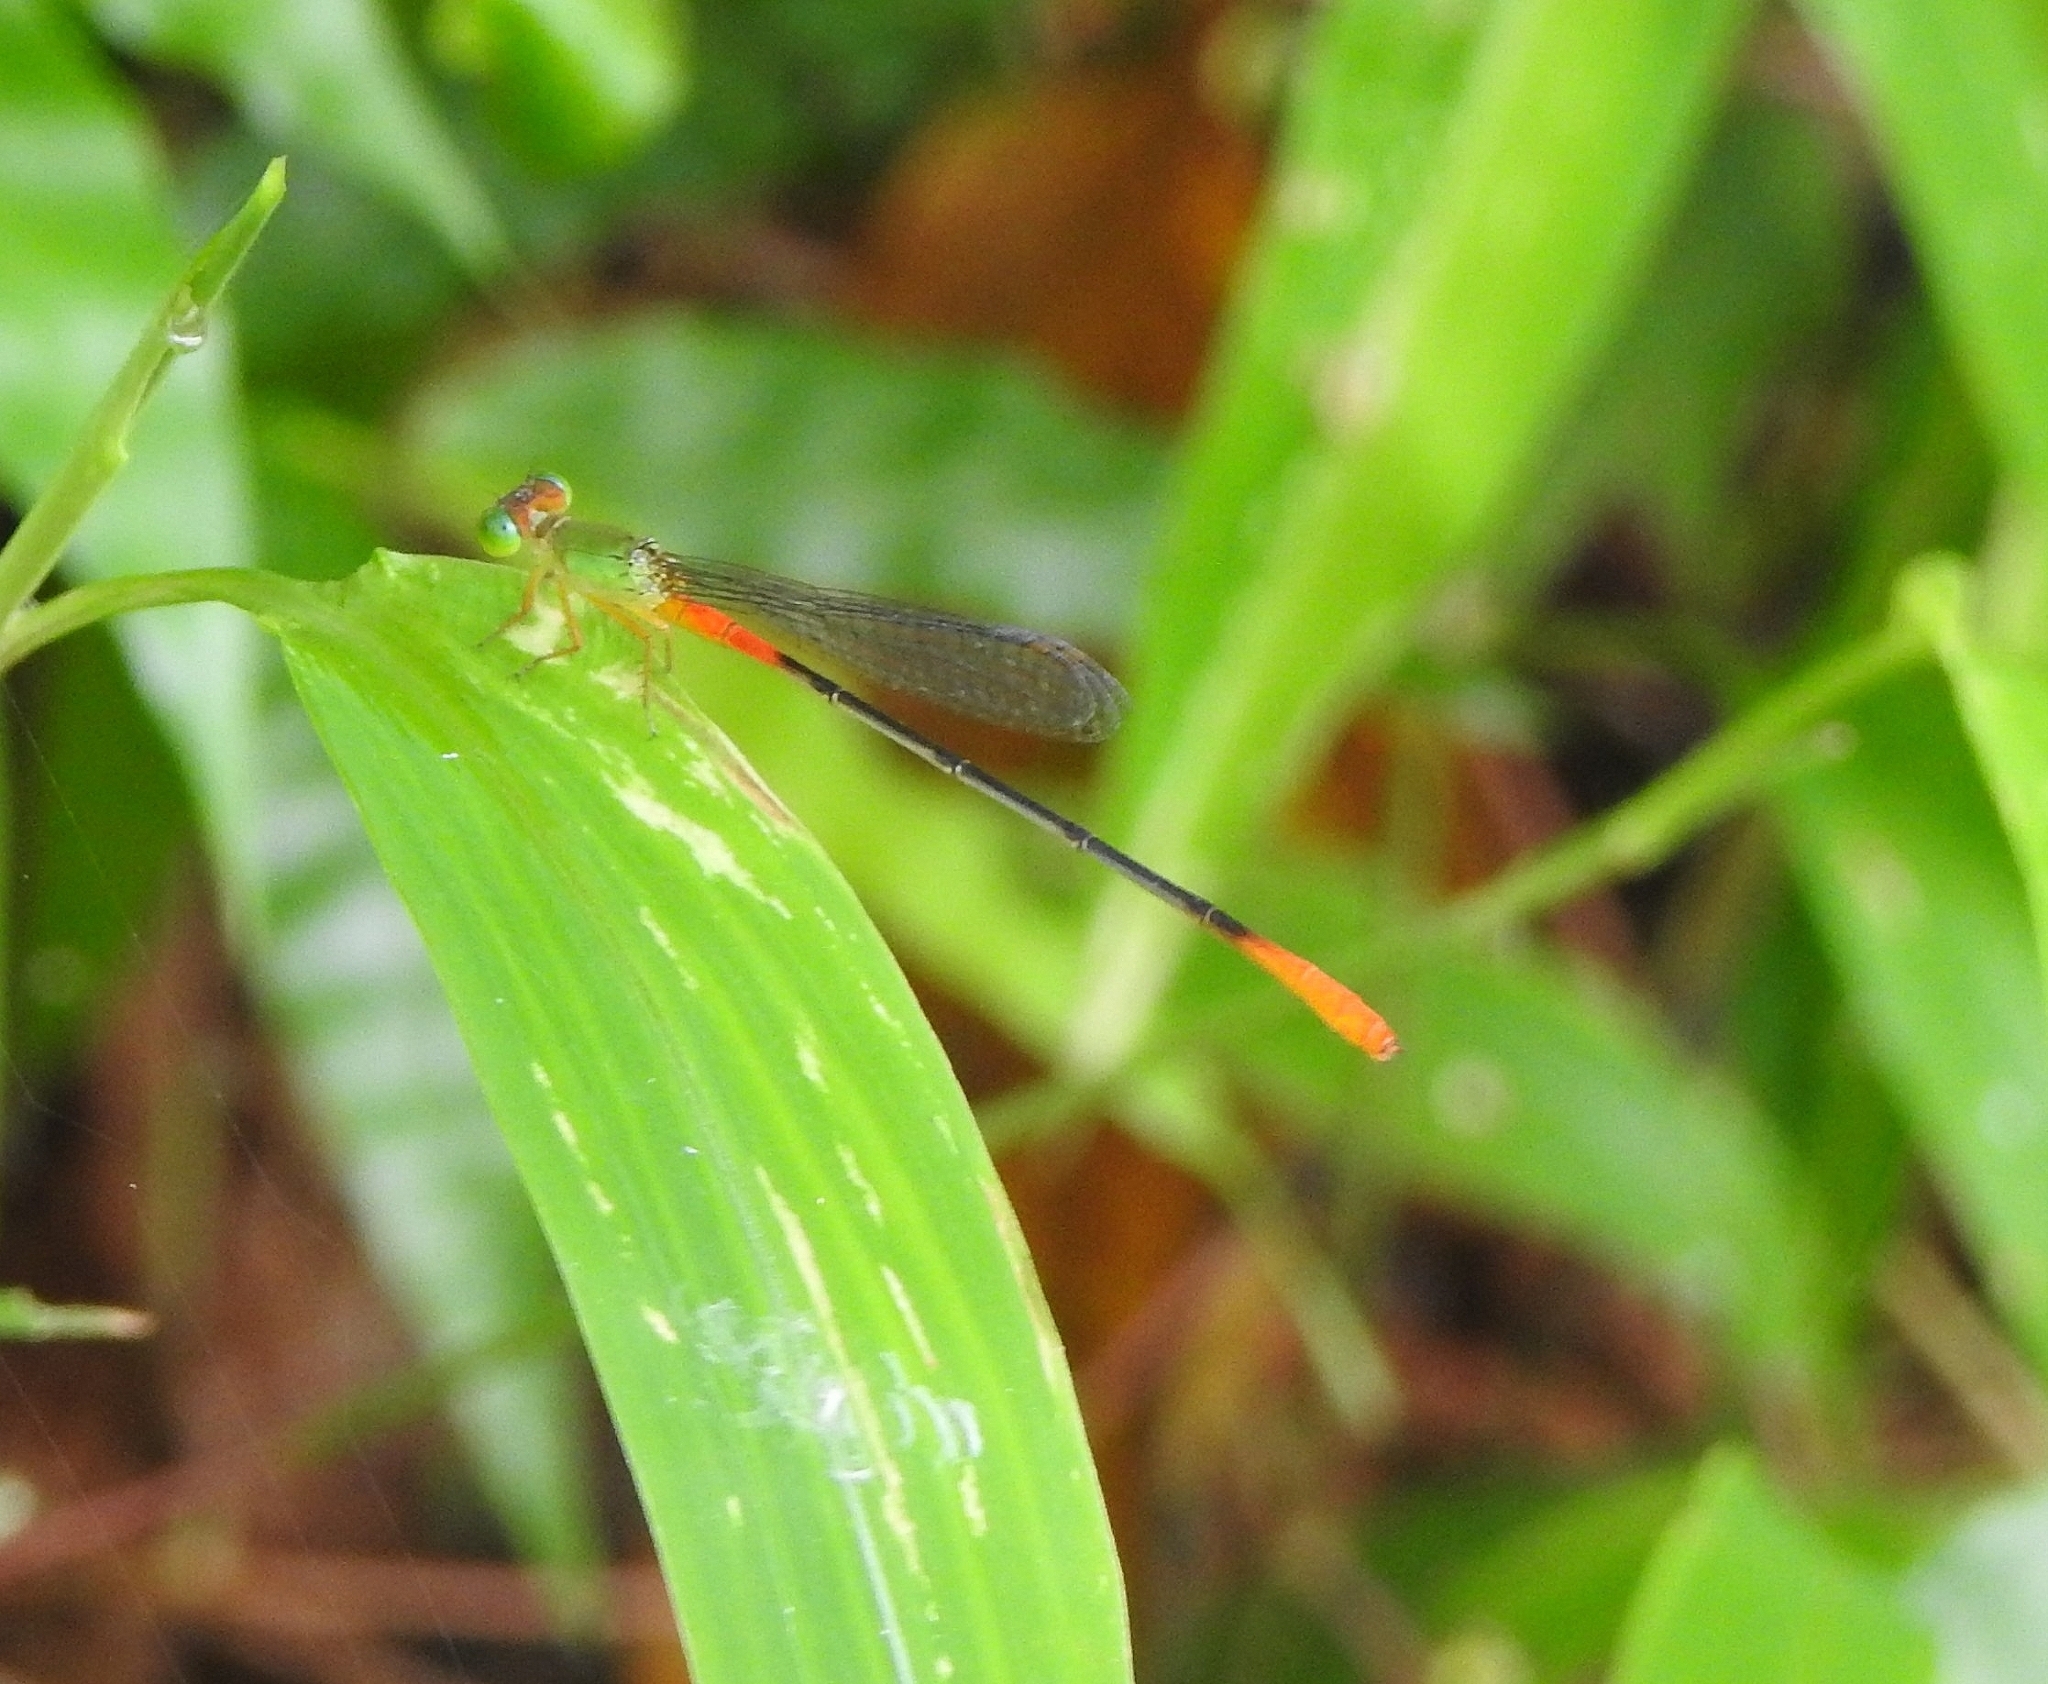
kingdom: Animalia
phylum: Arthropoda
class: Insecta
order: Odonata
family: Coenagrionidae
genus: Ceriagrion
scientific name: Ceriagrion cerinorubellum
